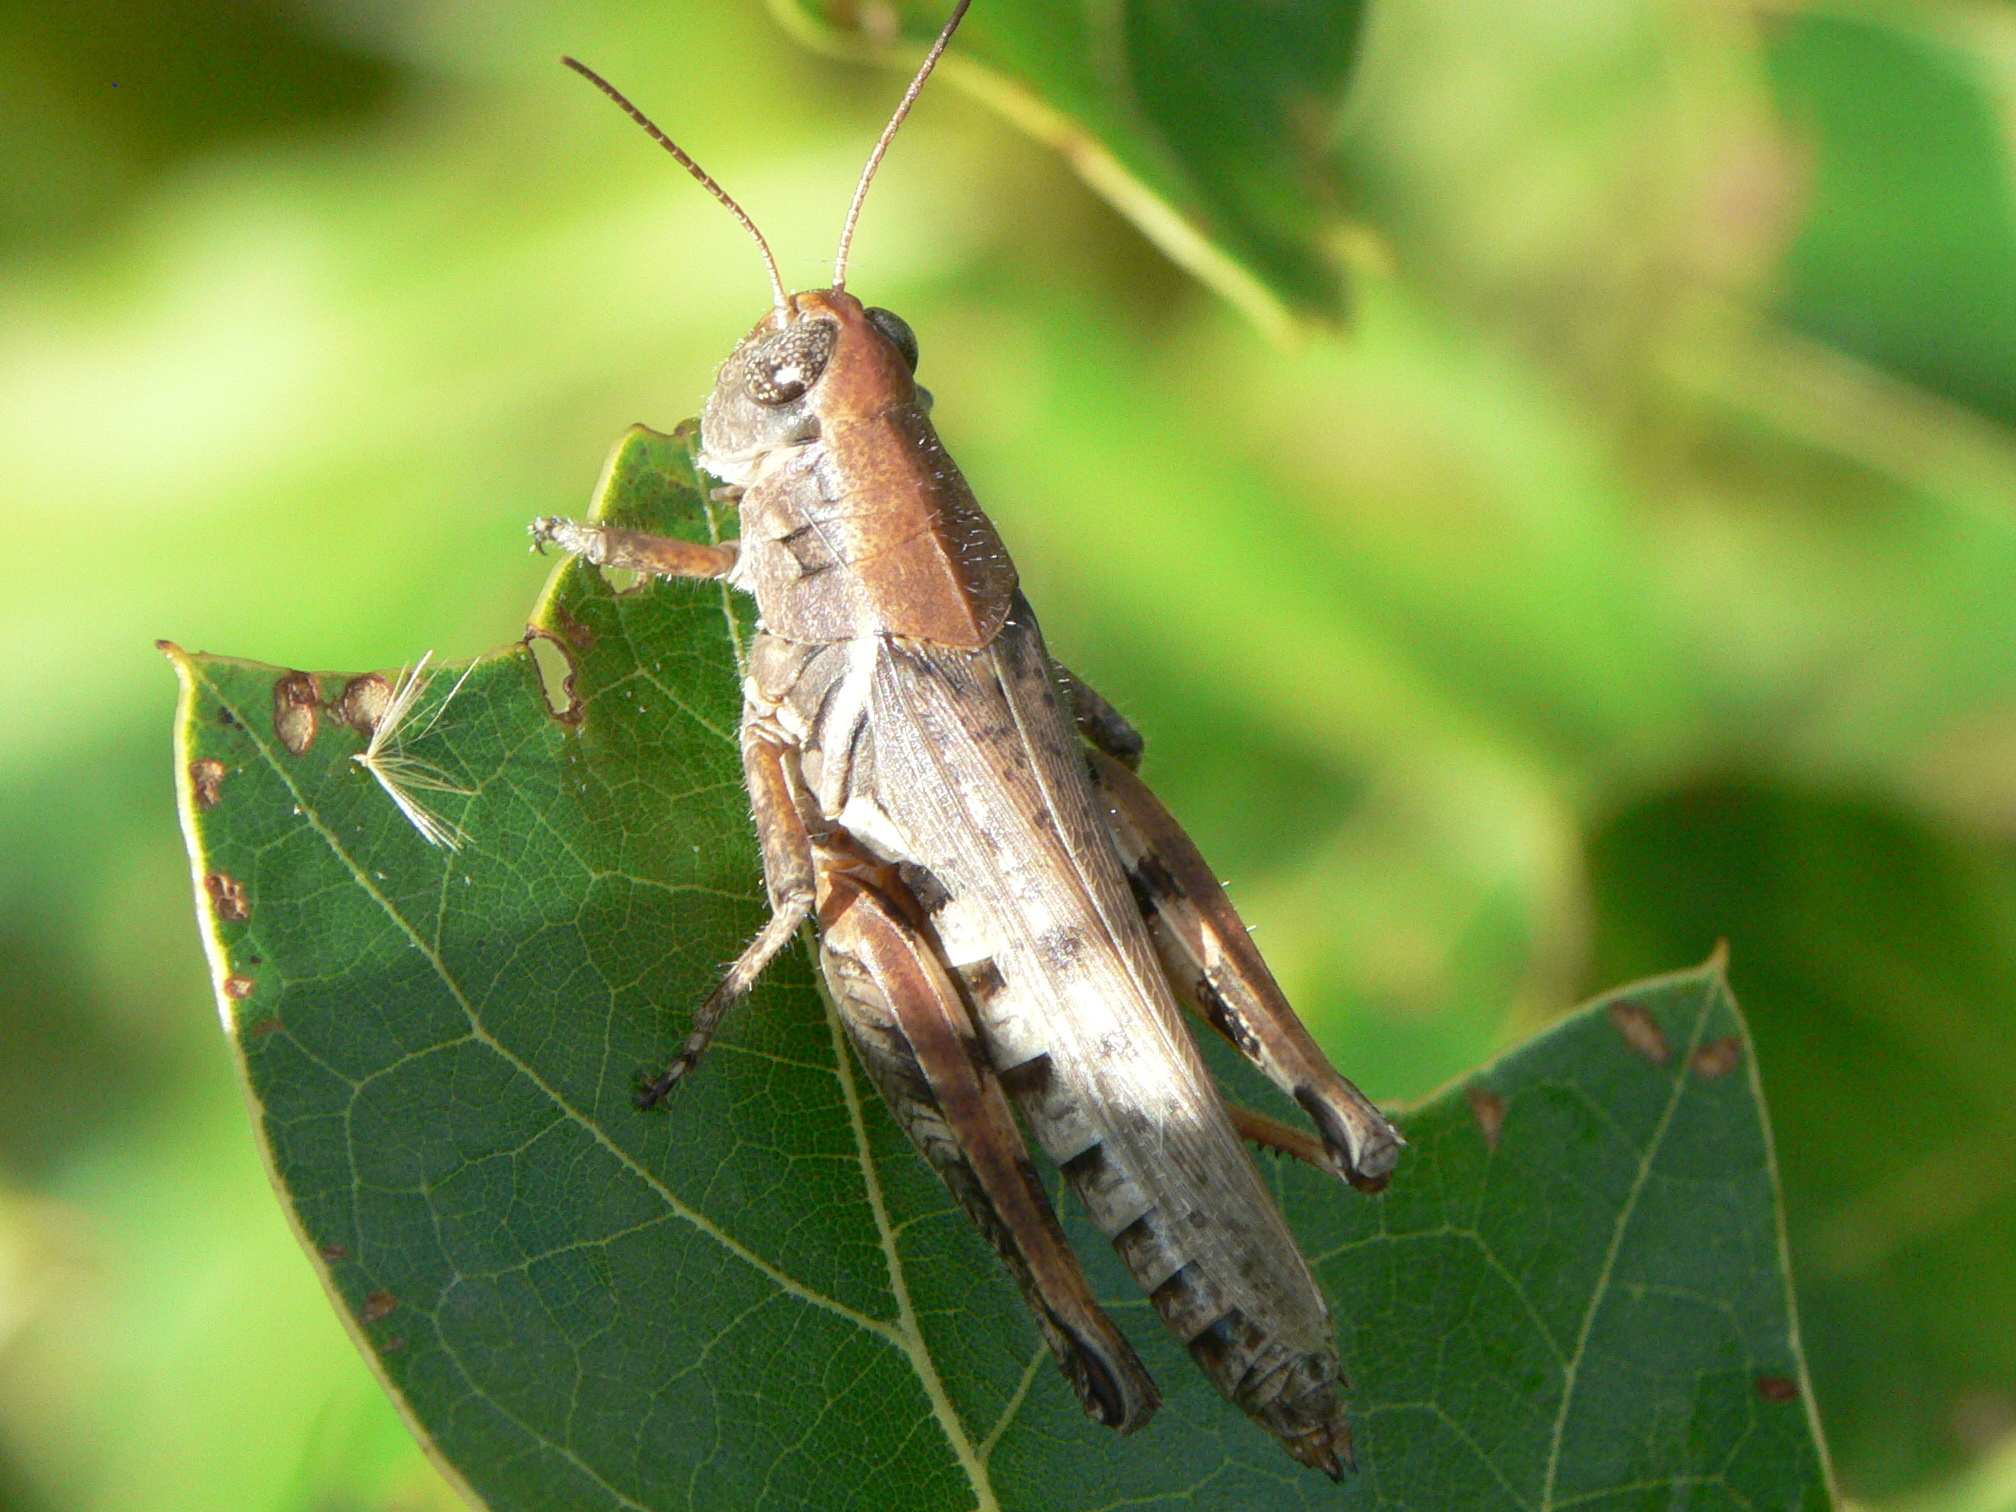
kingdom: Animalia
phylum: Arthropoda
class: Insecta
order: Orthoptera
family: Acrididae
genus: Melanoplus
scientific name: Melanoplus keeleri
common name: Keeler grasshopper
